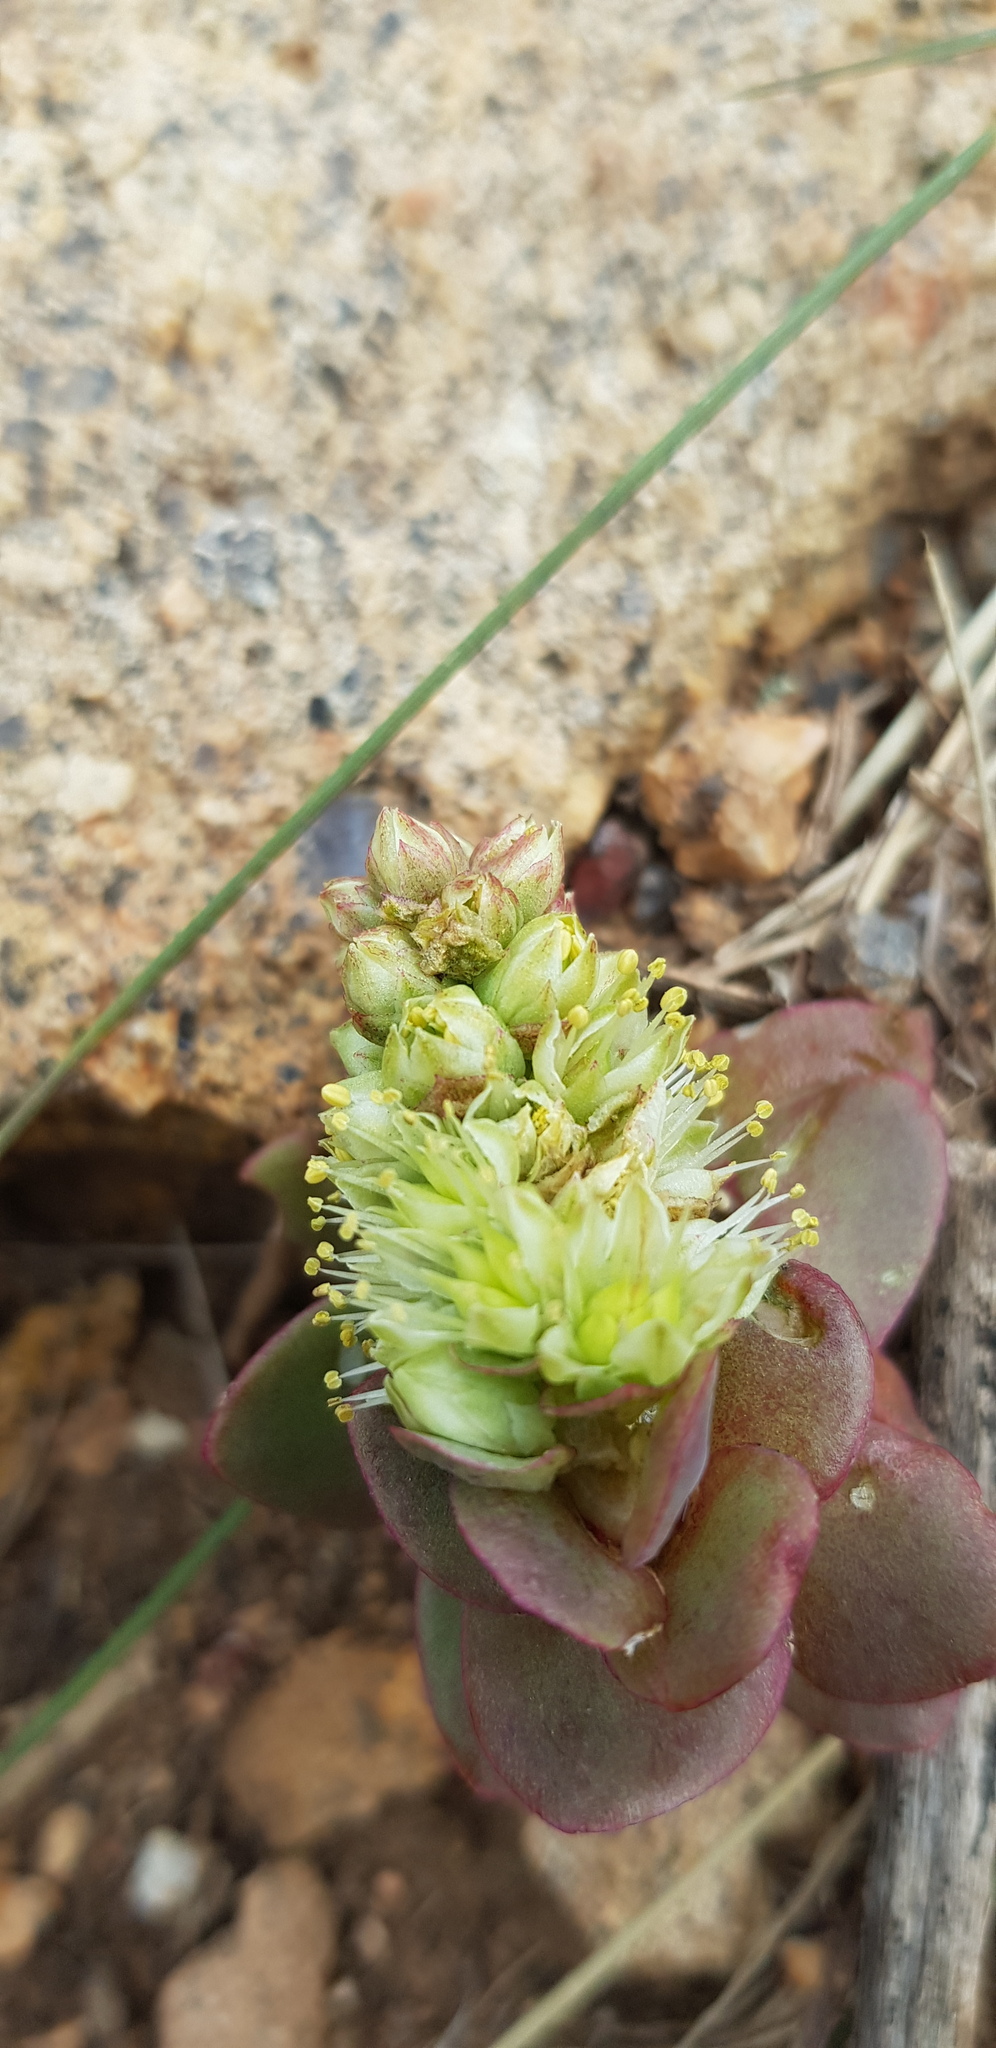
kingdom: Plantae
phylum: Tracheophyta
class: Magnoliopsida
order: Saxifragales
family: Crassulaceae
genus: Orostachys
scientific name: Orostachys malacophylla
